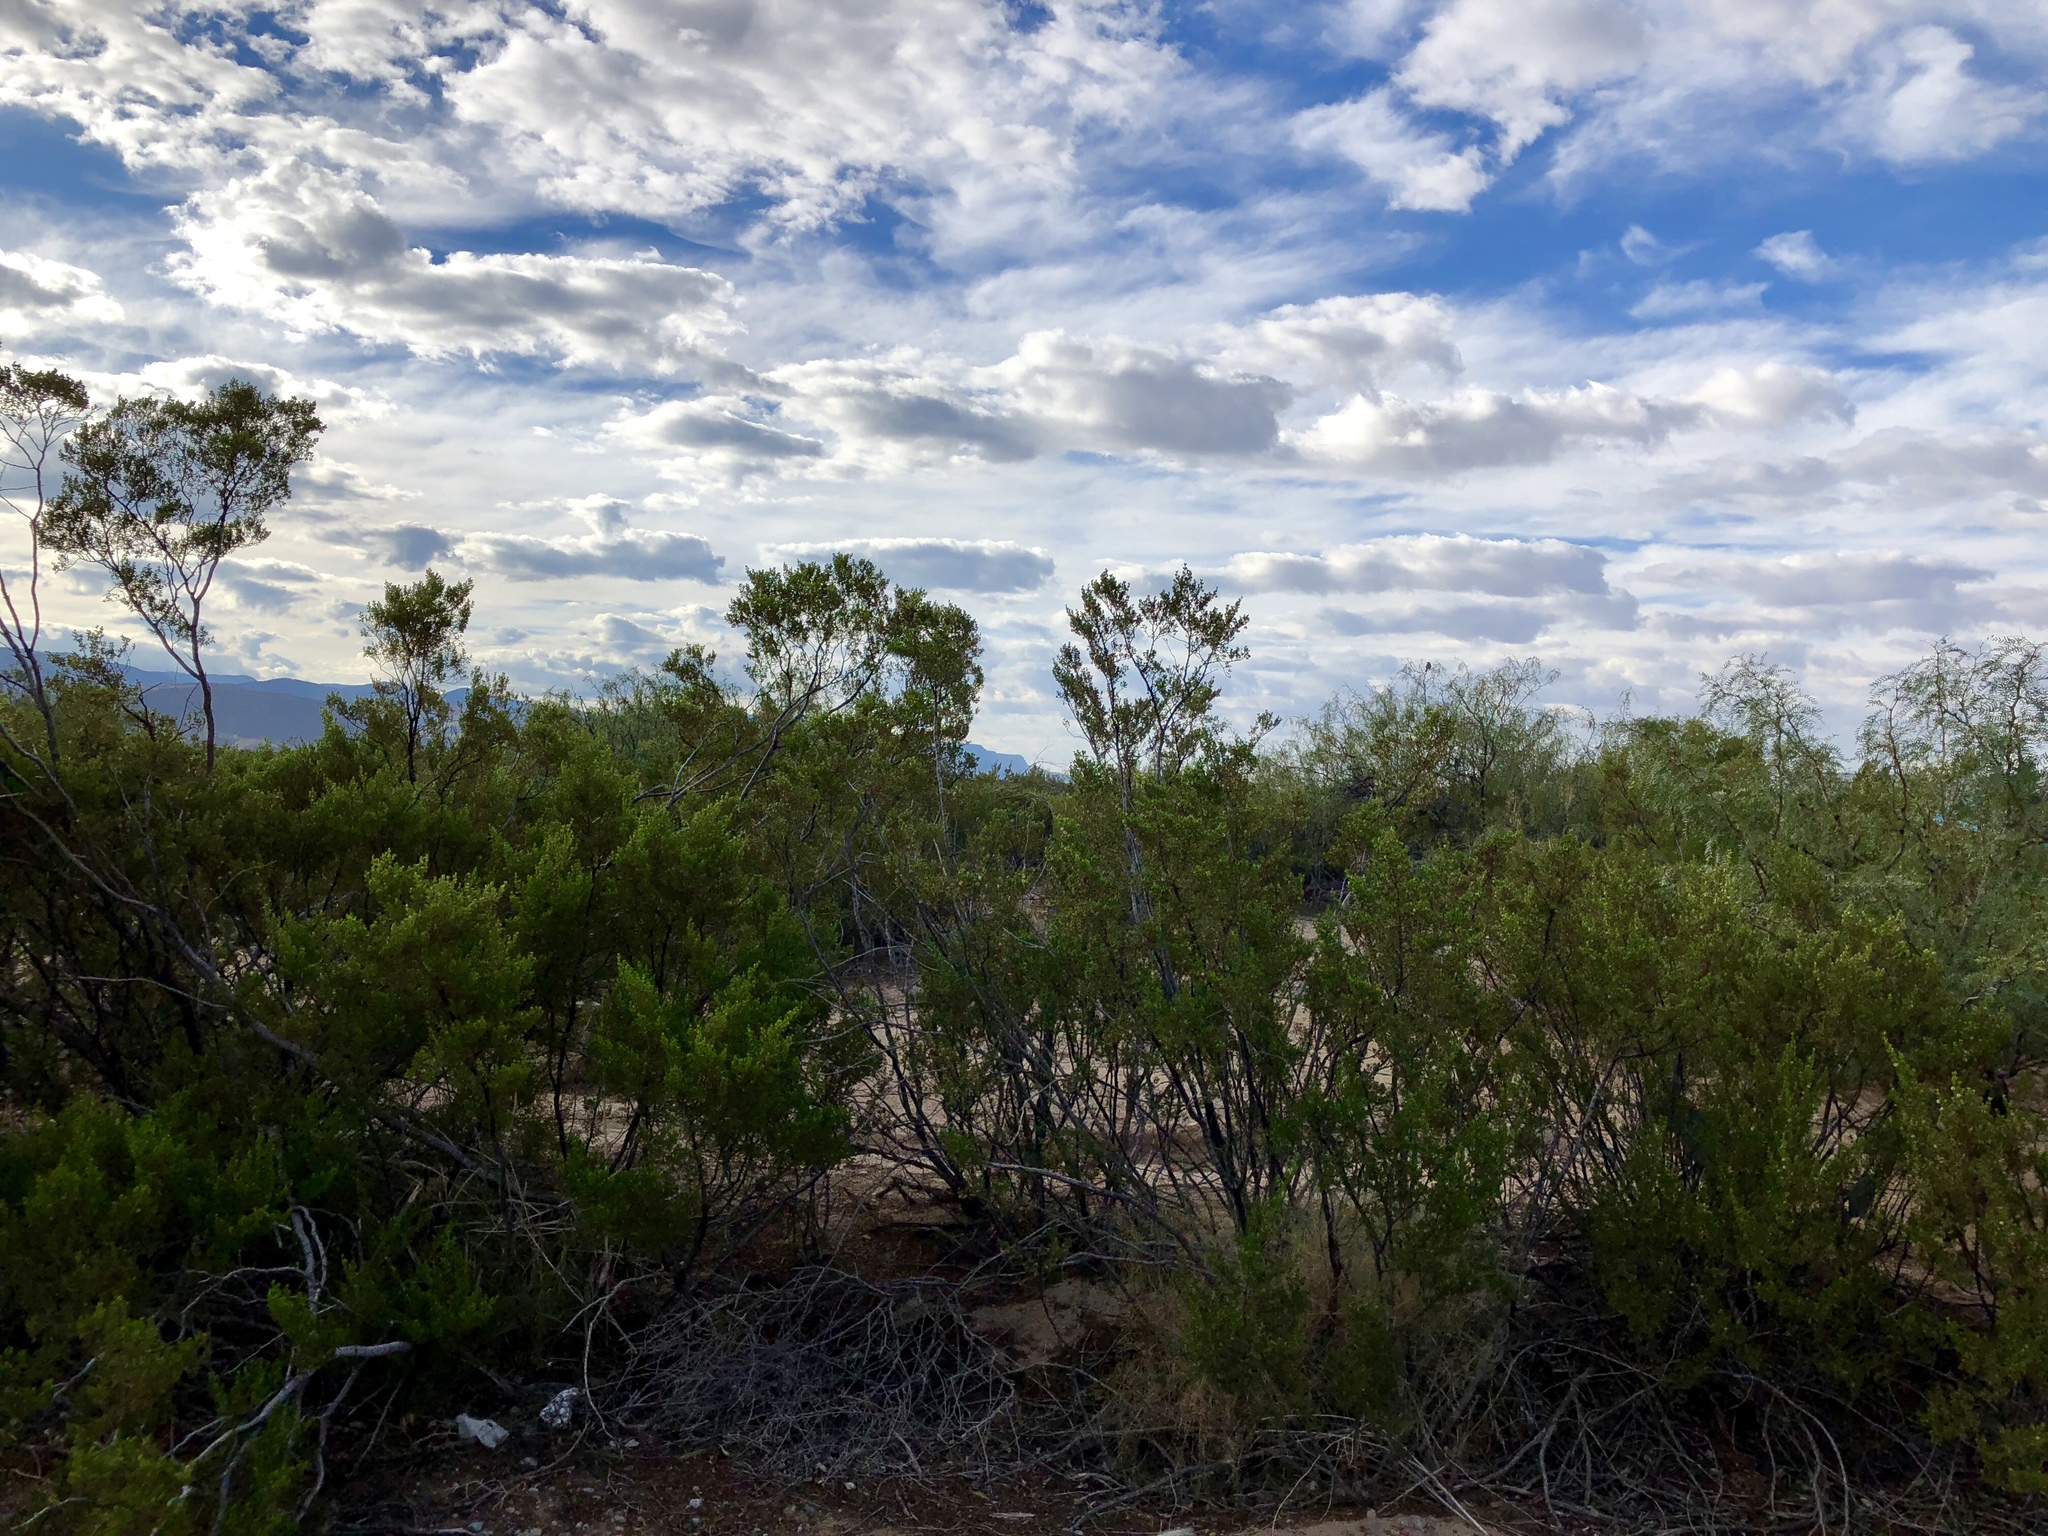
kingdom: Plantae
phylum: Tracheophyta
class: Magnoliopsida
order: Zygophyllales
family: Zygophyllaceae
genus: Larrea
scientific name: Larrea tridentata
